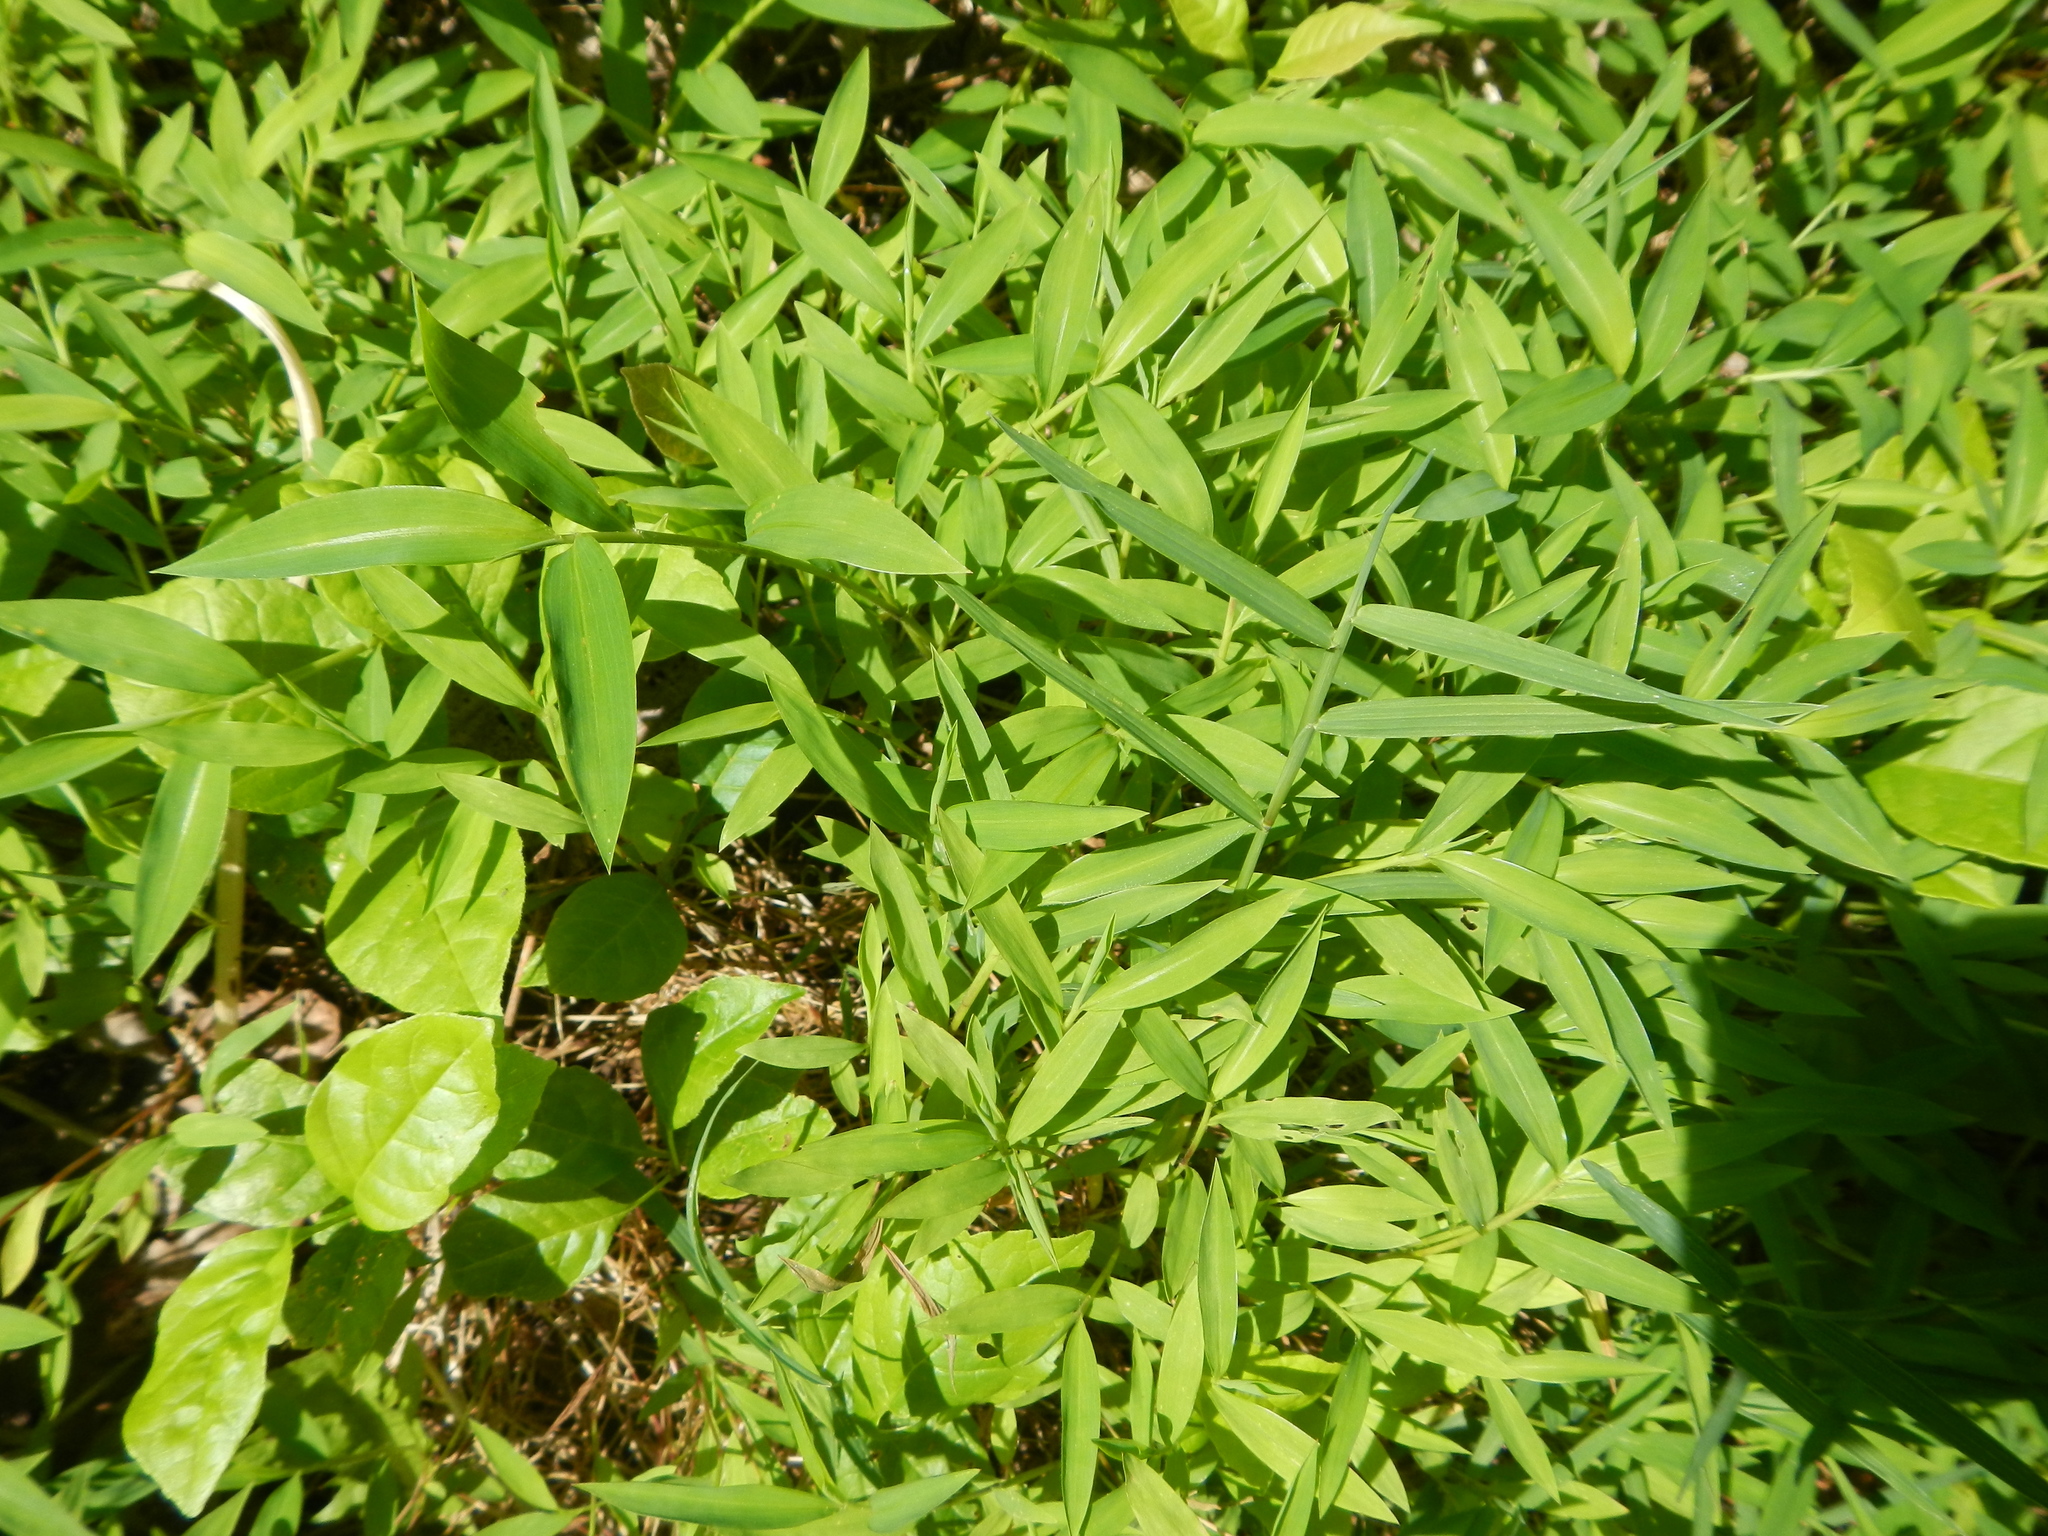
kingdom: Plantae
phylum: Tracheophyta
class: Liliopsida
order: Poales
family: Poaceae
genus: Microstegium
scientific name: Microstegium vimineum
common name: Japanese stiltgrass
